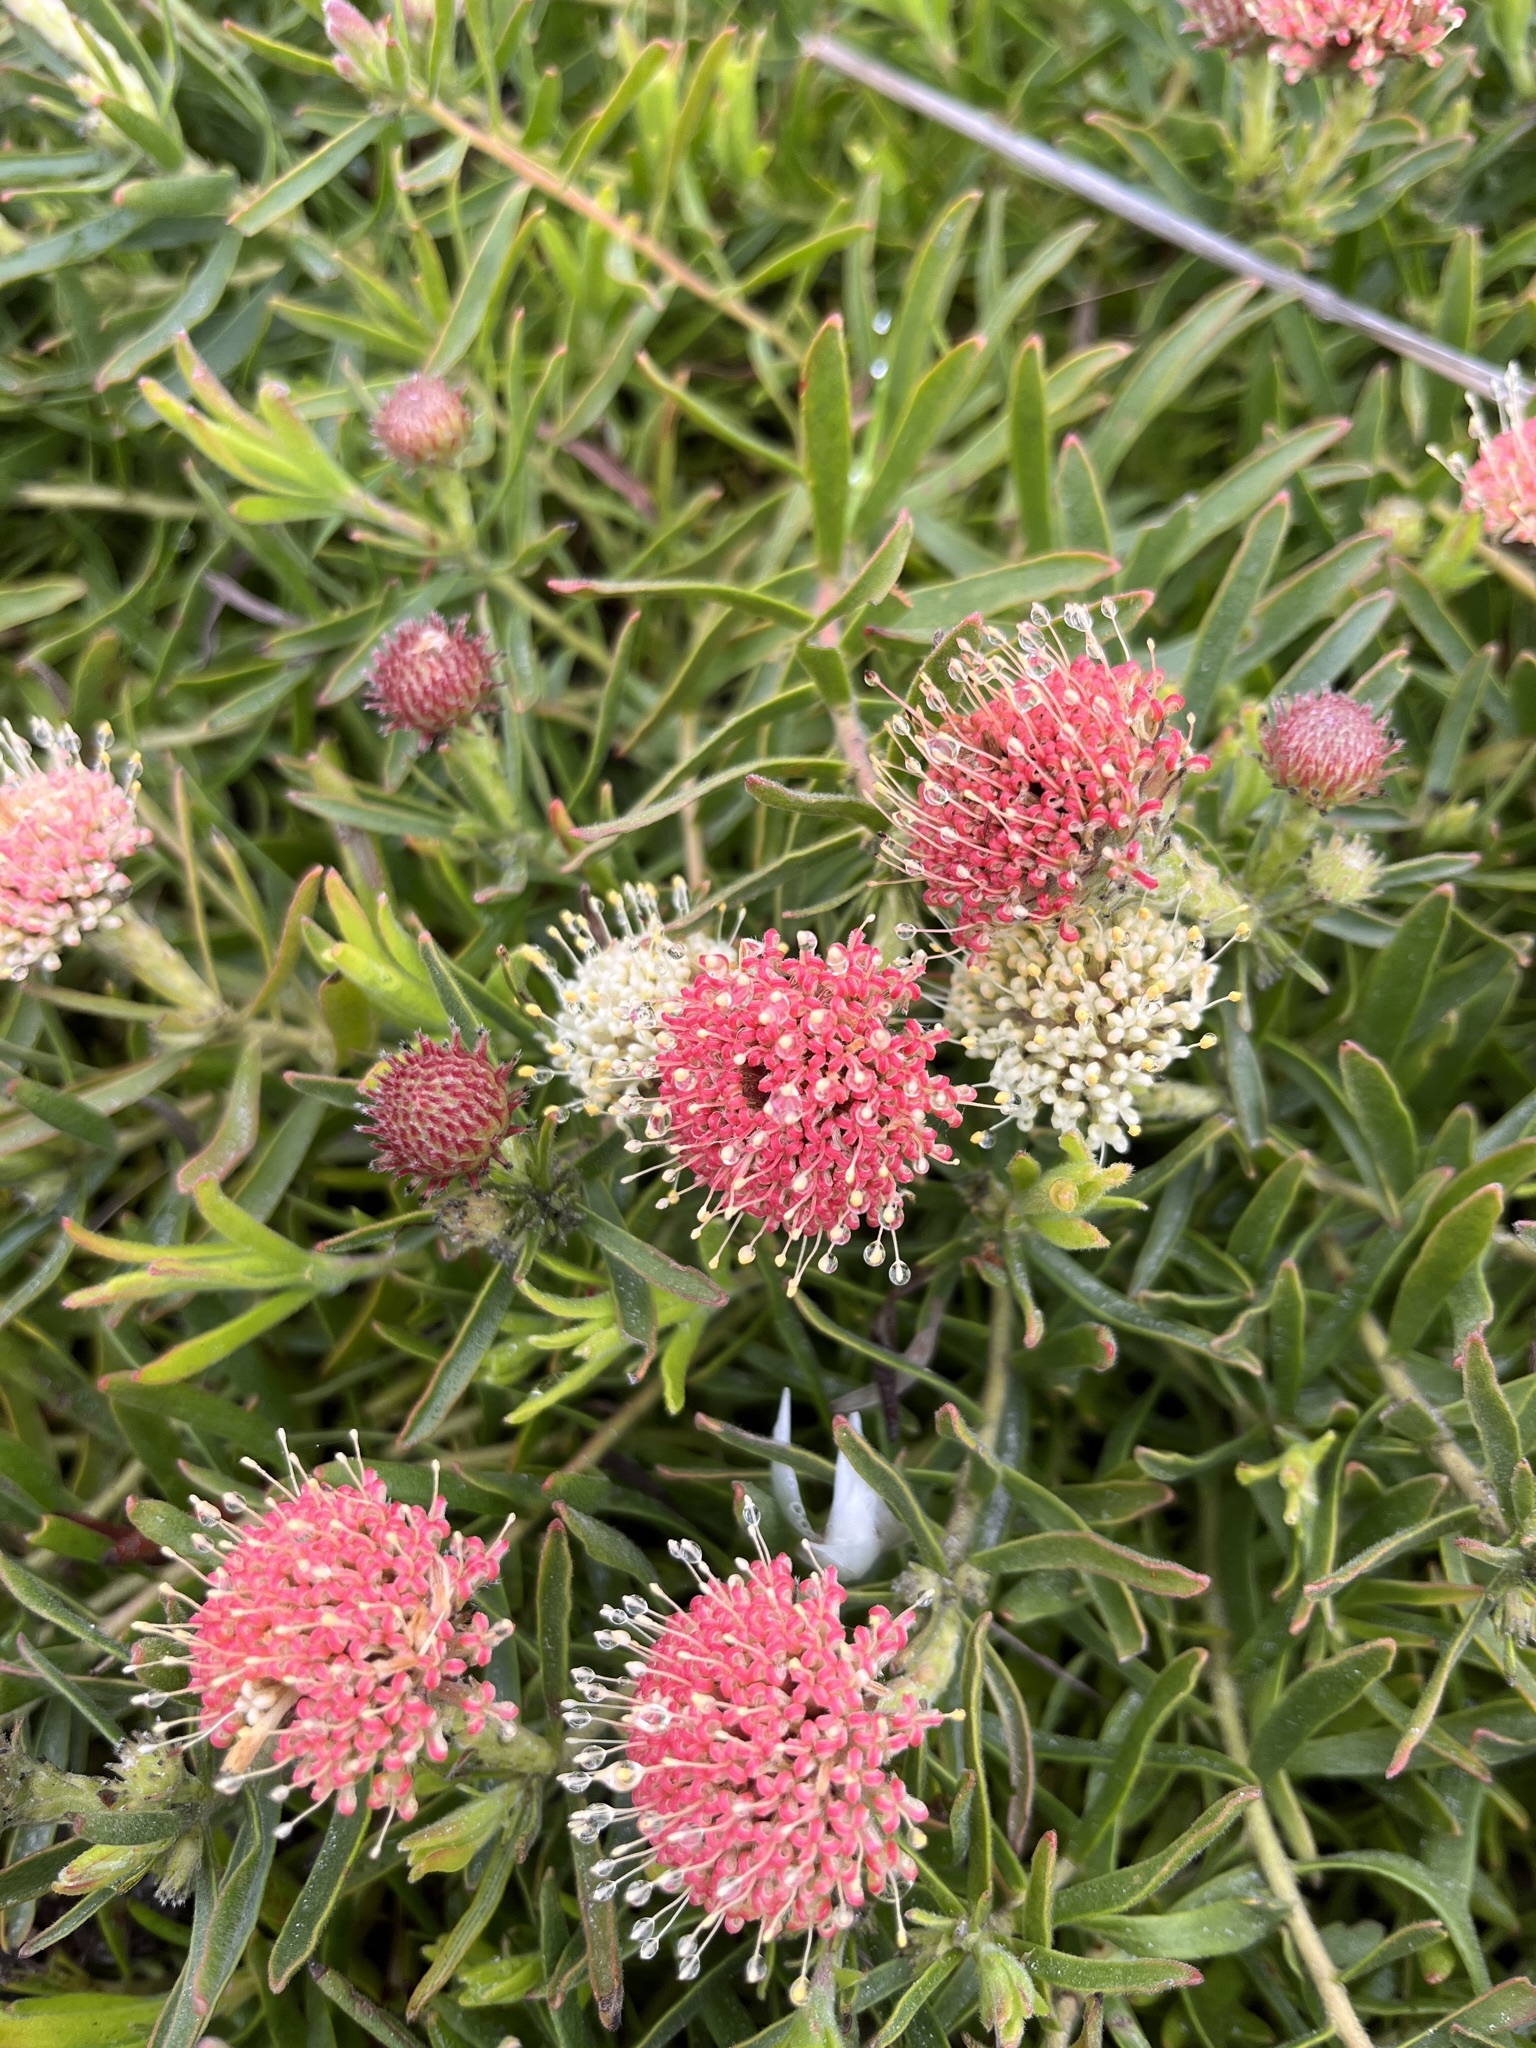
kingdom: Plantae
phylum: Tracheophyta
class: Magnoliopsida
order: Proteales
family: Proteaceae
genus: Leucospermum
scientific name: Leucospermum pedunculatum
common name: White-trailing pincushion
